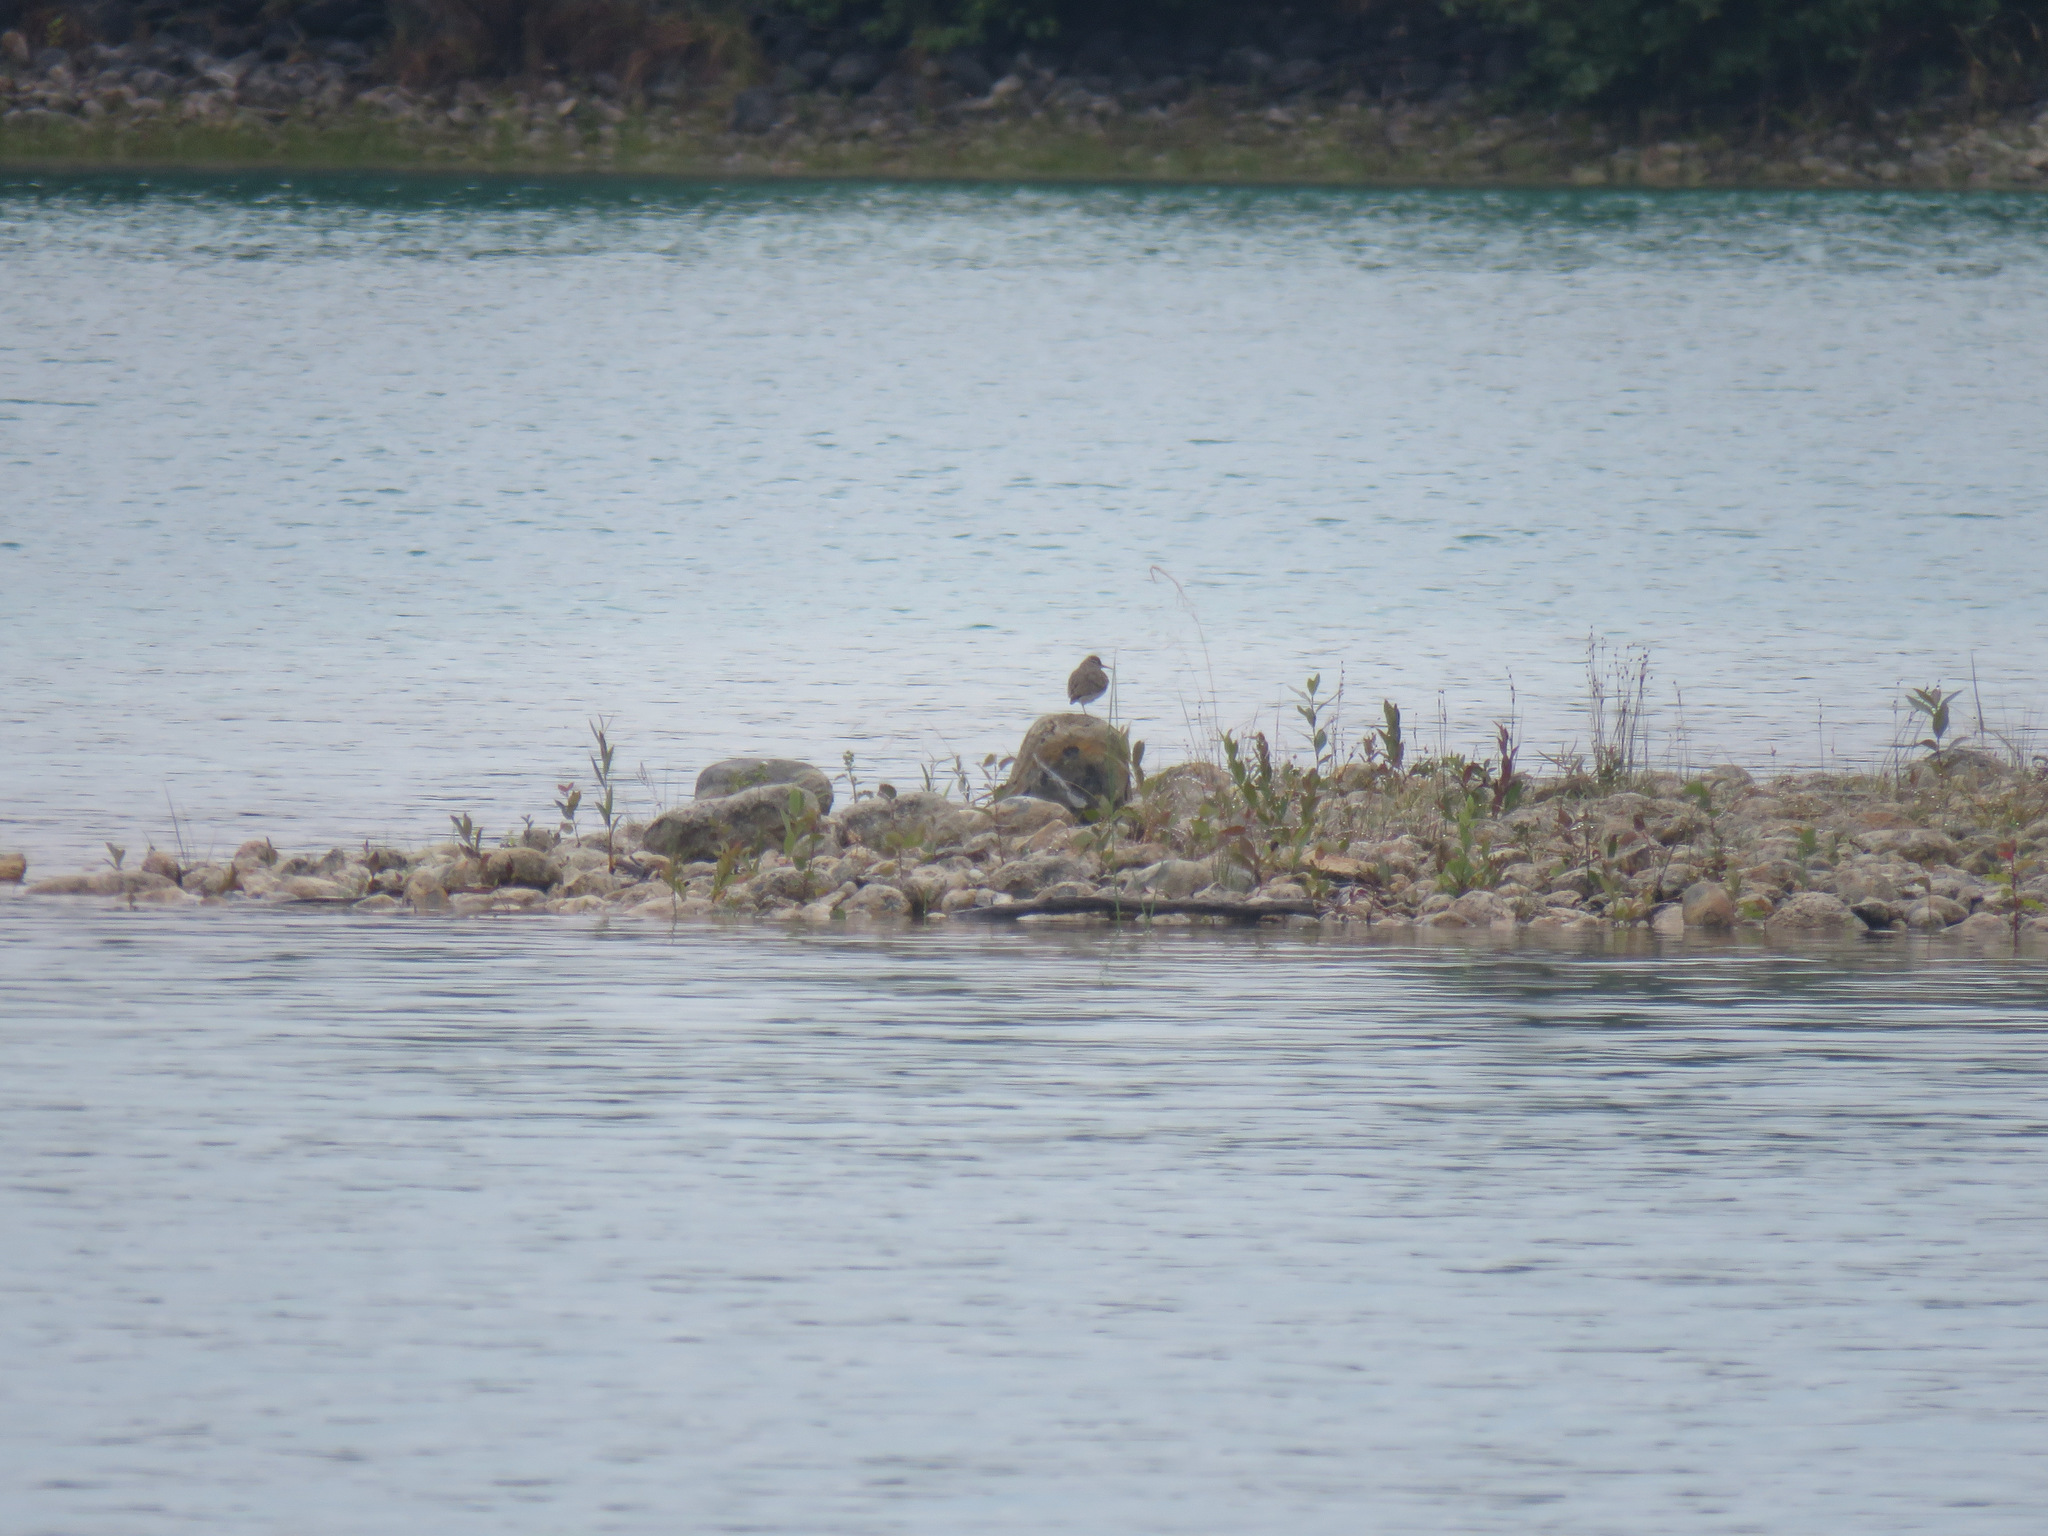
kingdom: Animalia
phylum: Chordata
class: Aves
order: Charadriiformes
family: Scolopacidae
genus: Actitis
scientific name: Actitis macularius
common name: Spotted sandpiper
